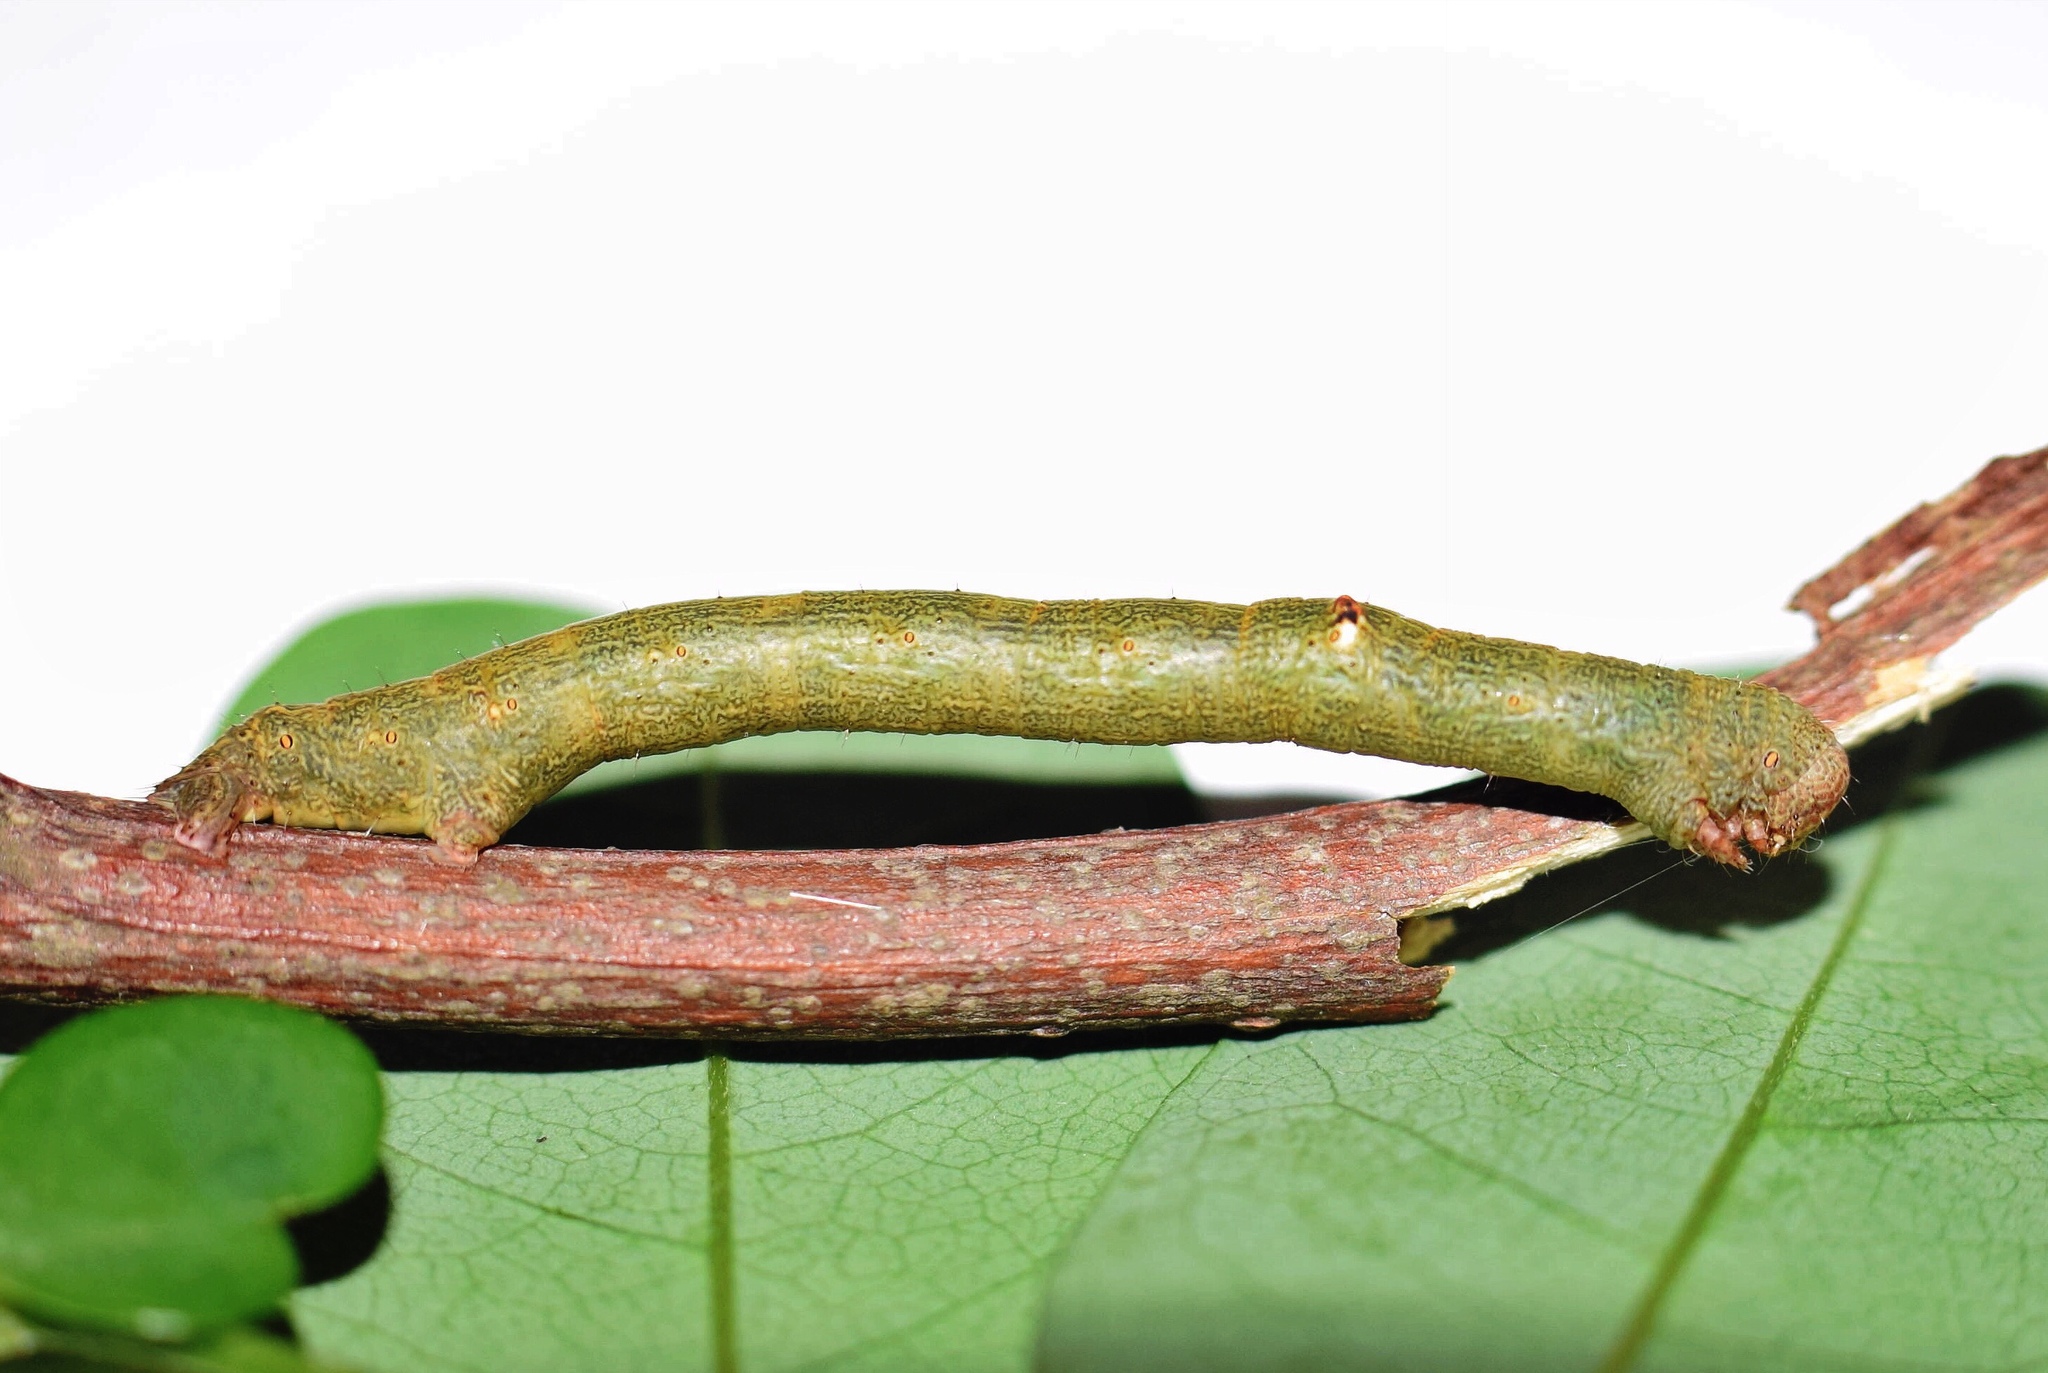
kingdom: Animalia
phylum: Arthropoda
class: Insecta
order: Lepidoptera
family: Geometridae
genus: Cleora
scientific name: Cleora rothkirchi
